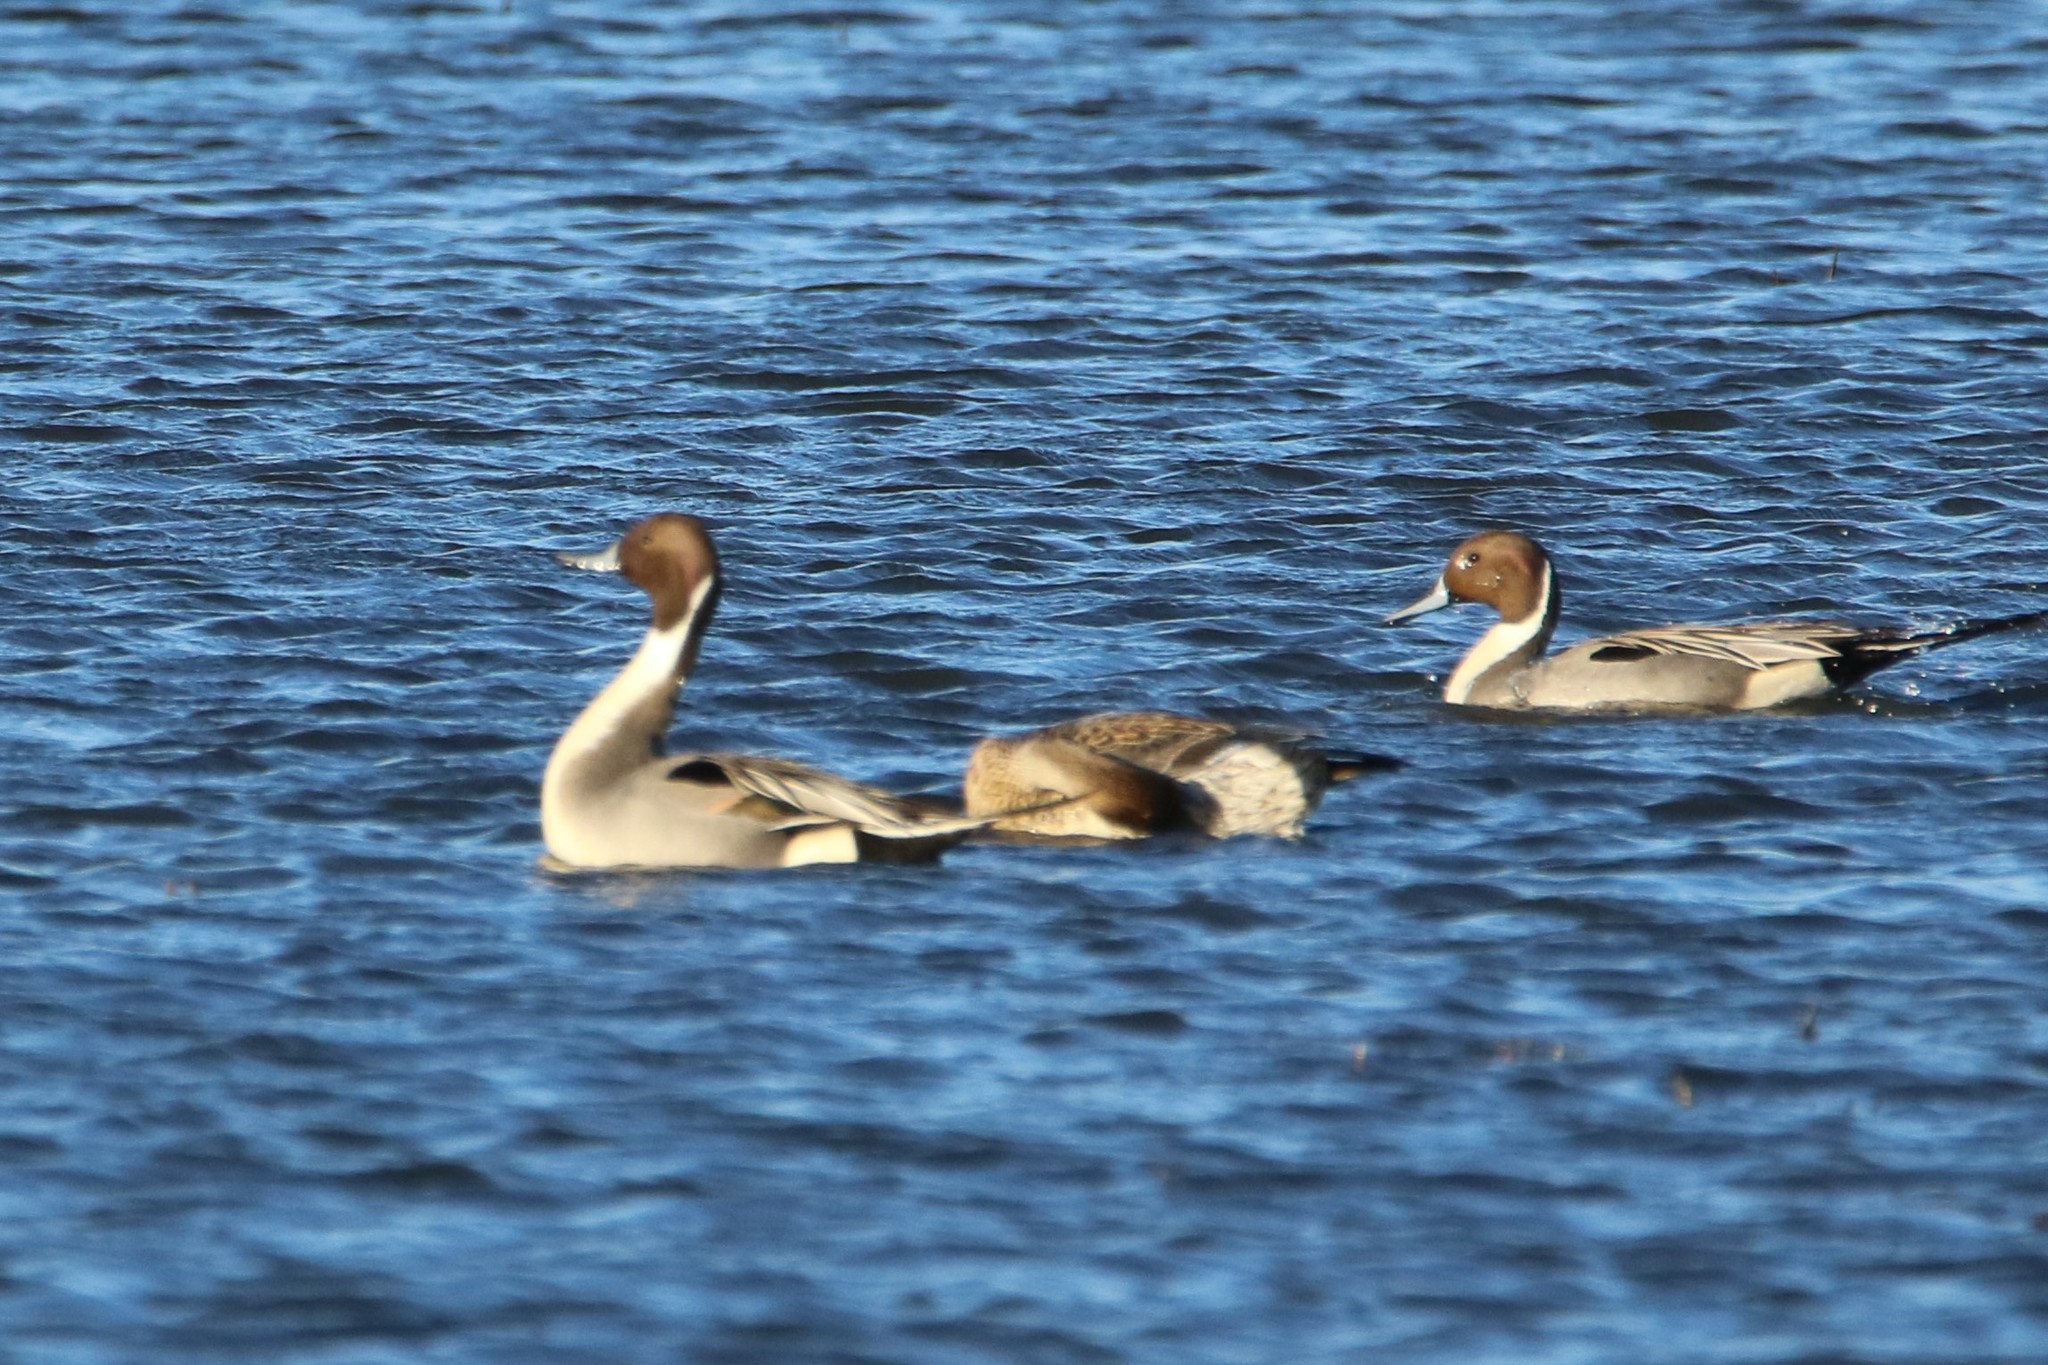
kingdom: Animalia
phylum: Chordata
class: Aves
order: Anseriformes
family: Anatidae
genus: Anas
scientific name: Anas acuta
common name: Northern pintail
